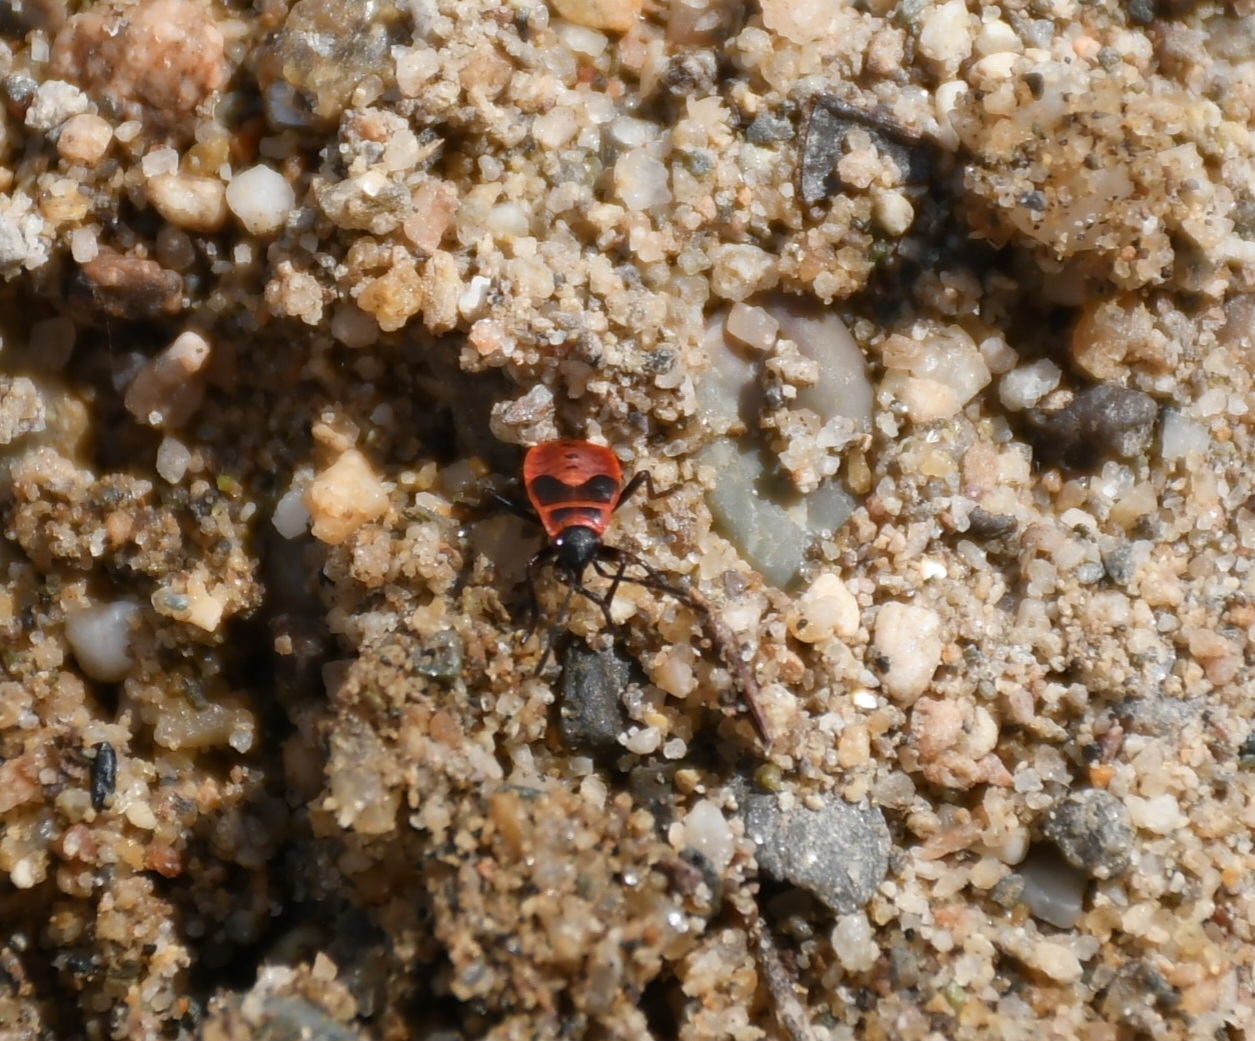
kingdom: Animalia
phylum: Arthropoda
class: Insecta
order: Hemiptera
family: Pyrrhocoridae
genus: Pyrrhocoris
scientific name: Pyrrhocoris apterus
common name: Firebug
